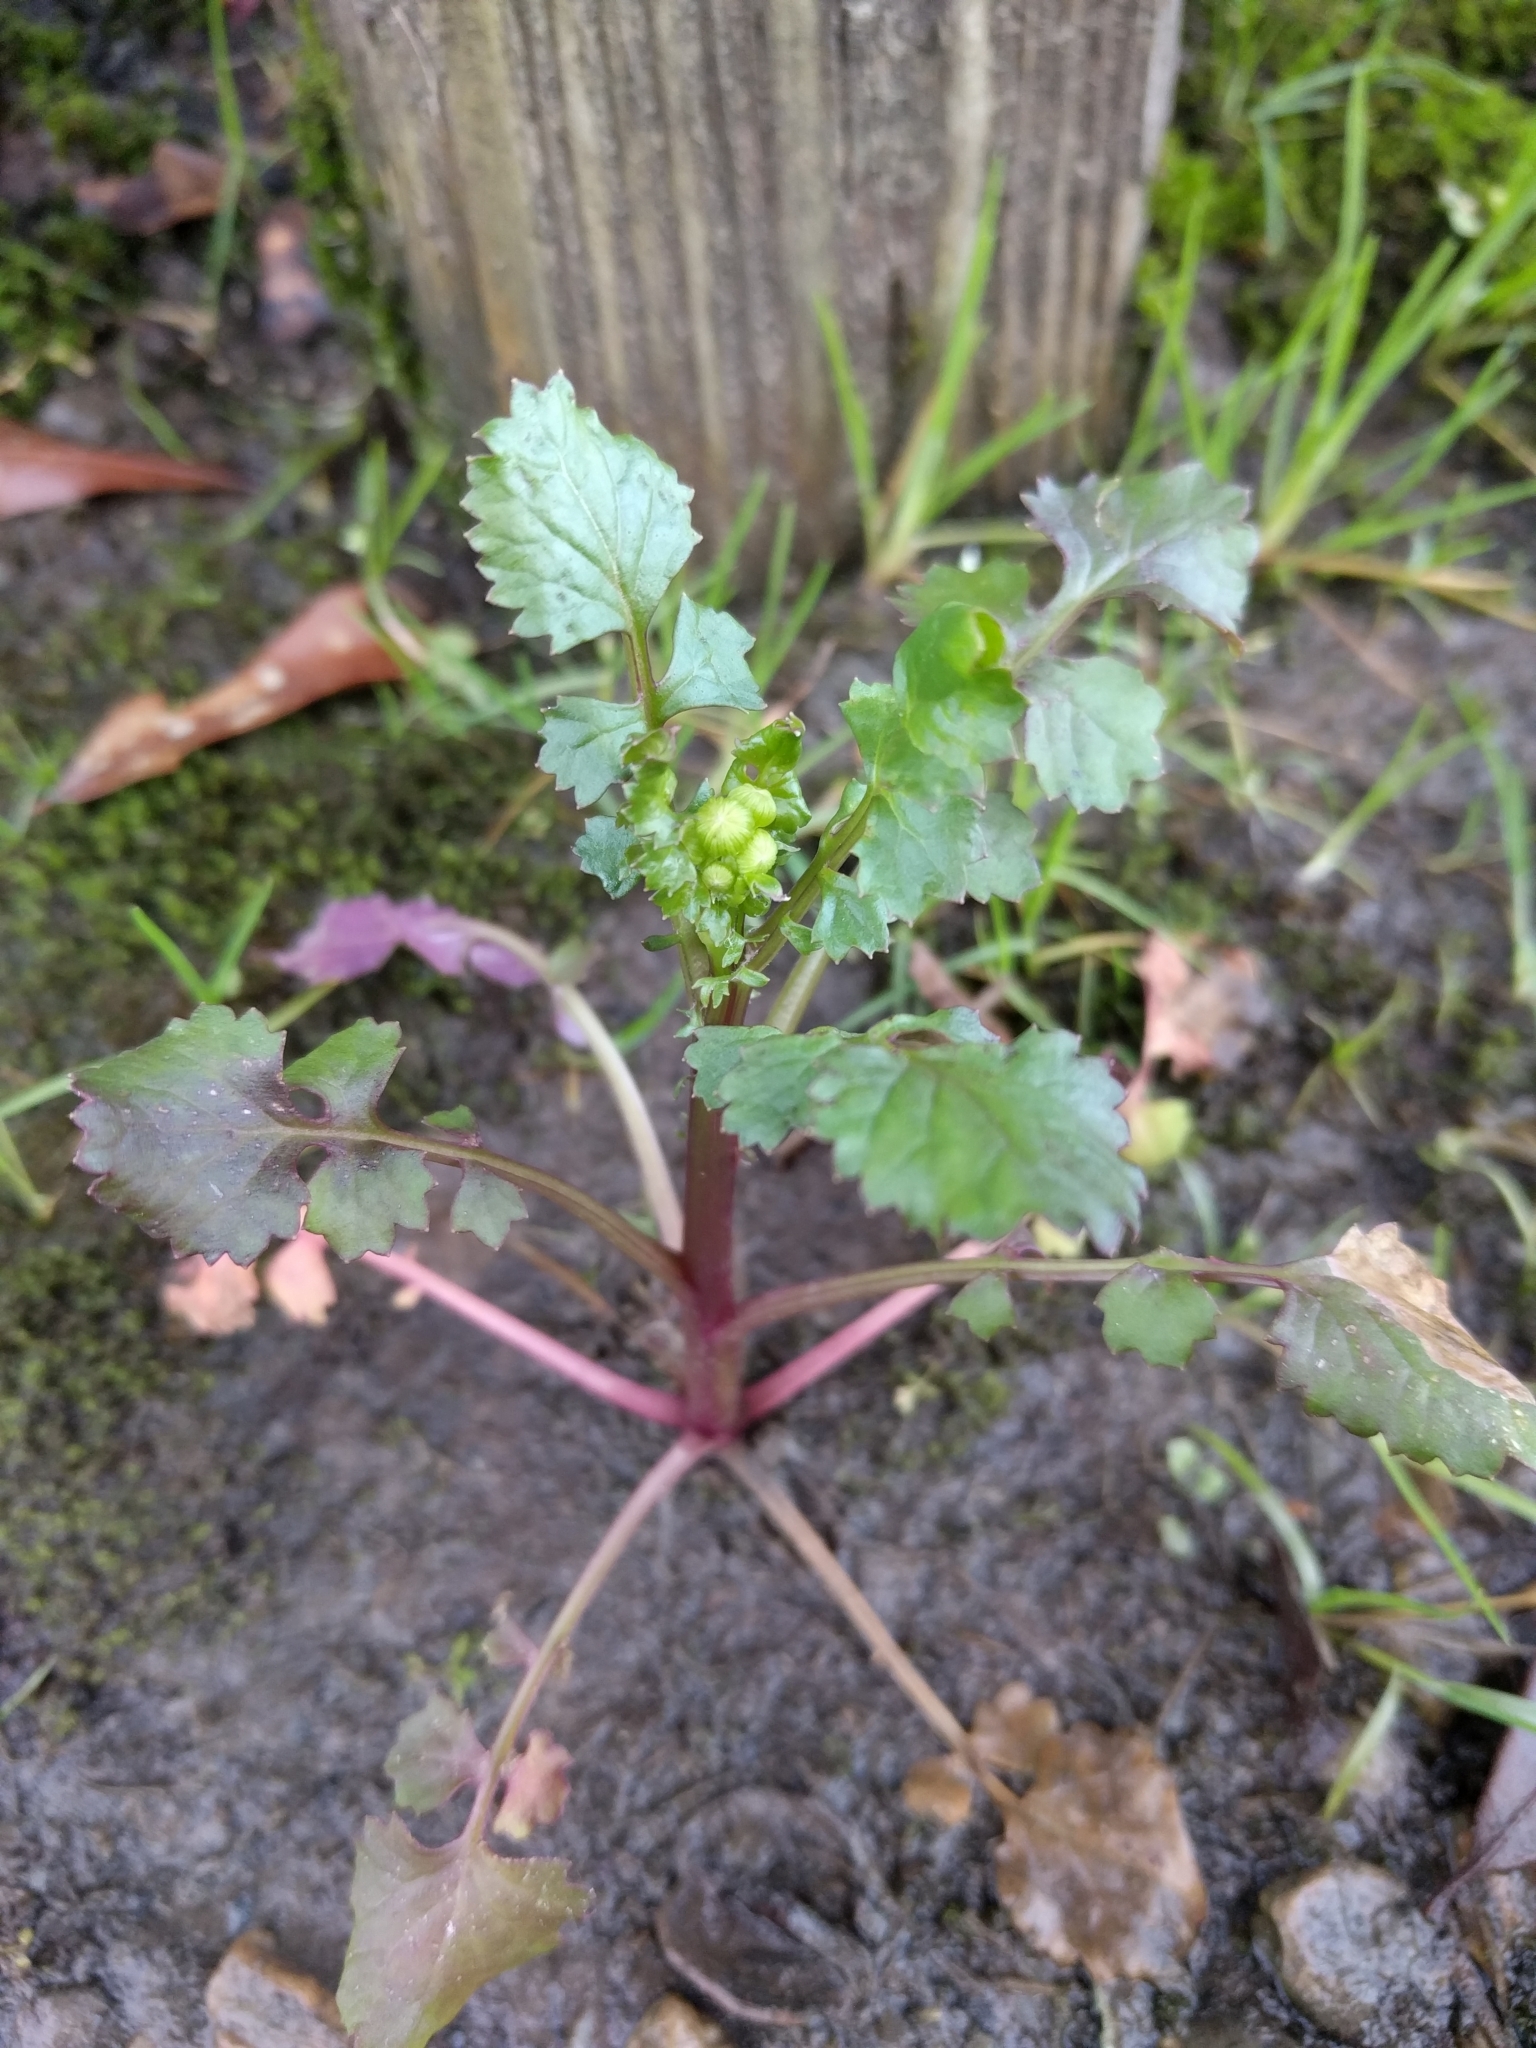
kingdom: Plantae
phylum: Tracheophyta
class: Magnoliopsida
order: Asterales
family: Asteraceae
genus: Packera
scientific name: Packera glabella
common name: Butterweed
